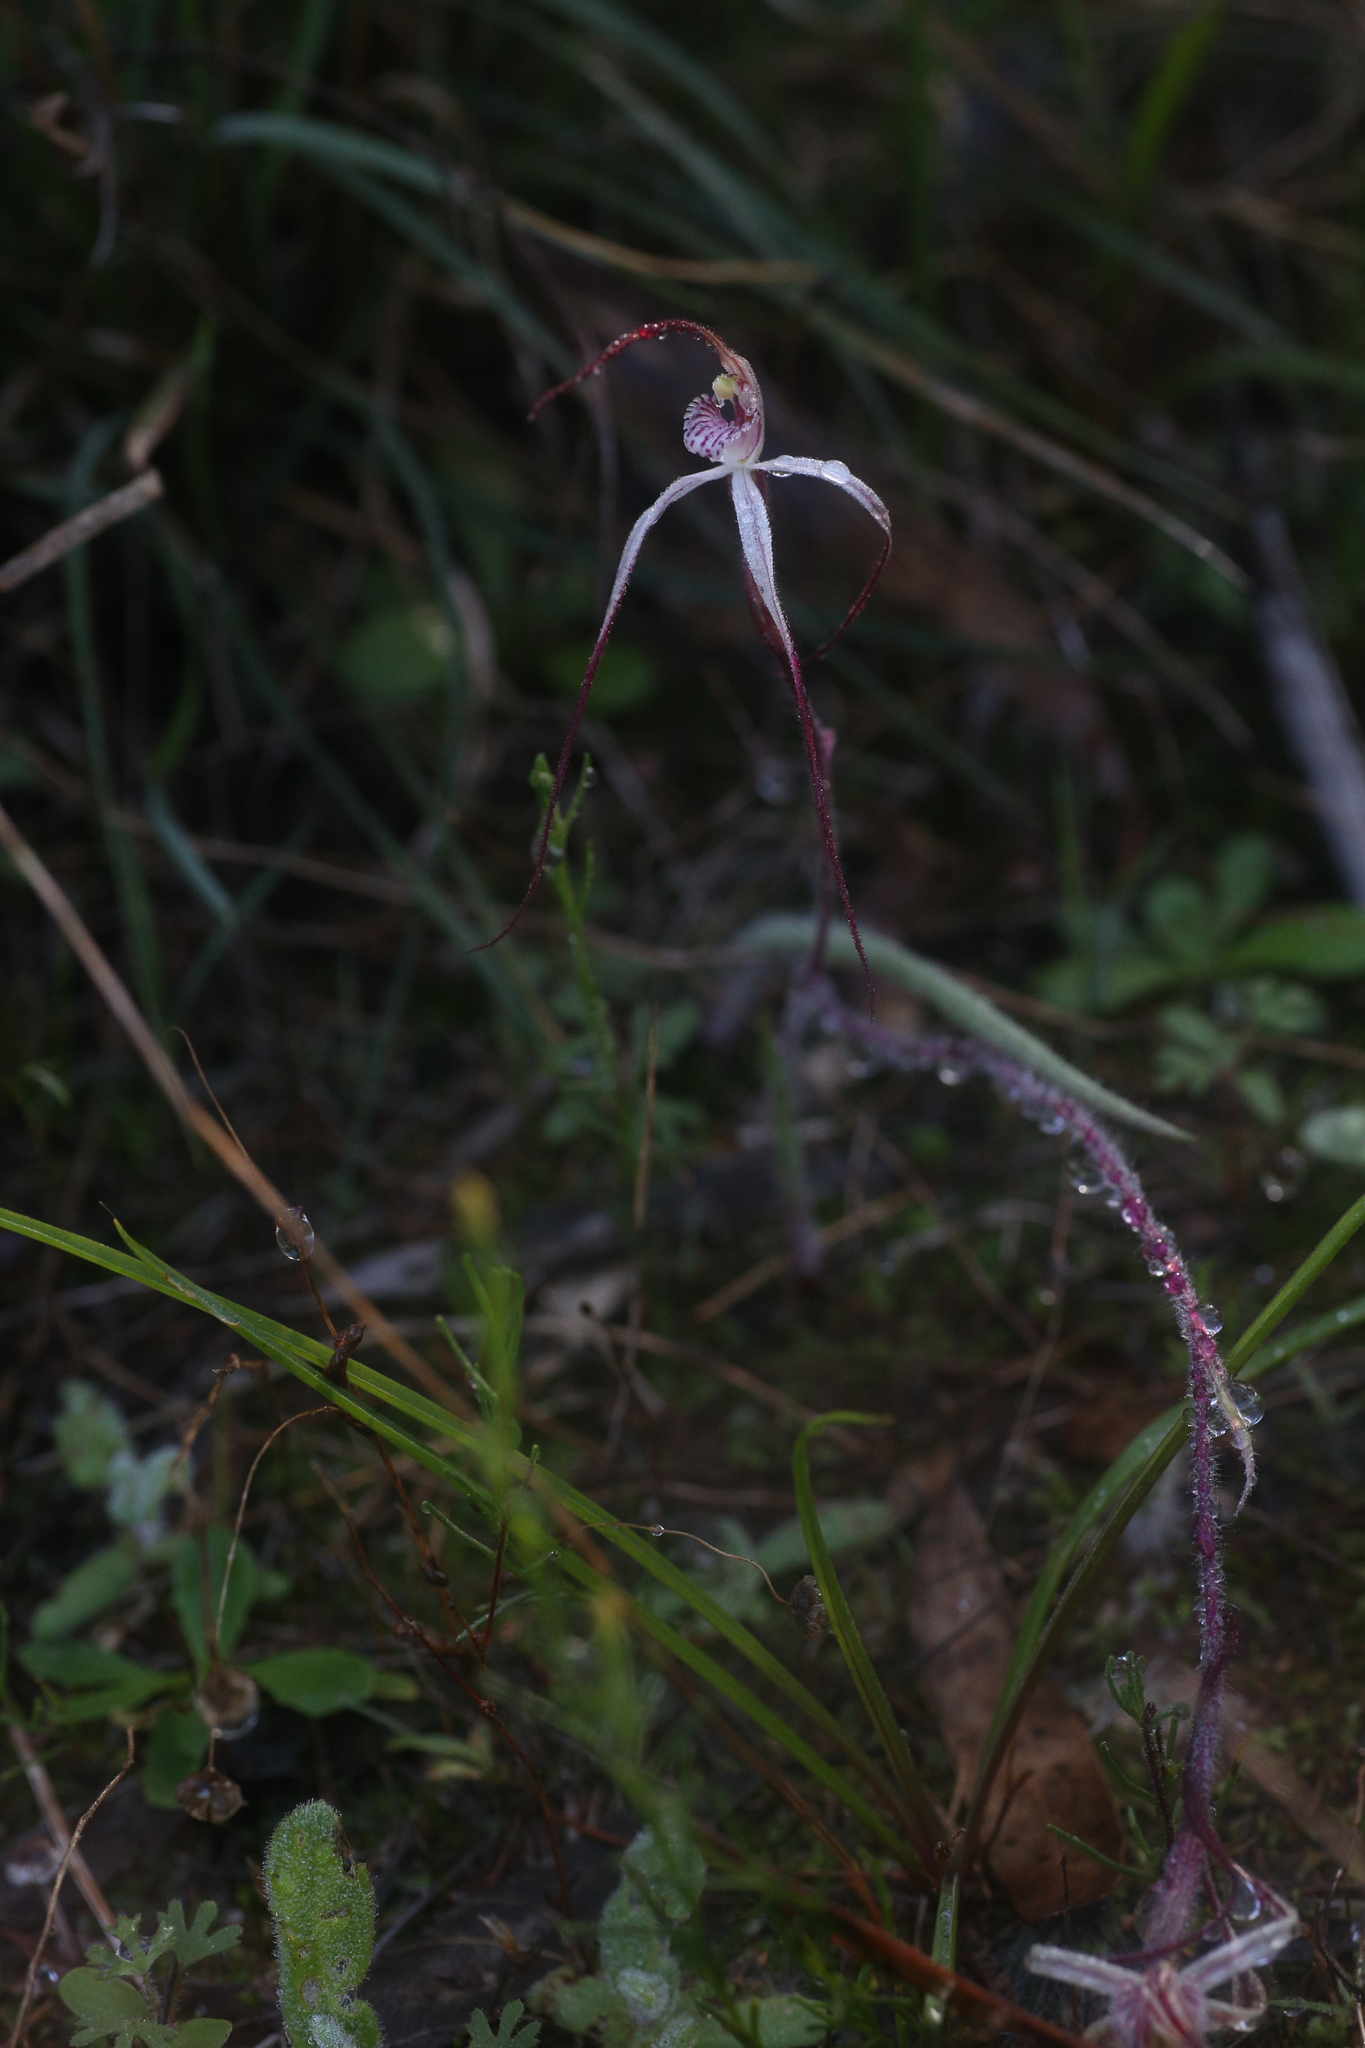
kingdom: Plantae
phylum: Tracheophyta
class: Liliopsida
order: Asparagales
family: Orchidaceae
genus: Caladenia
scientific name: Caladenia exilis
